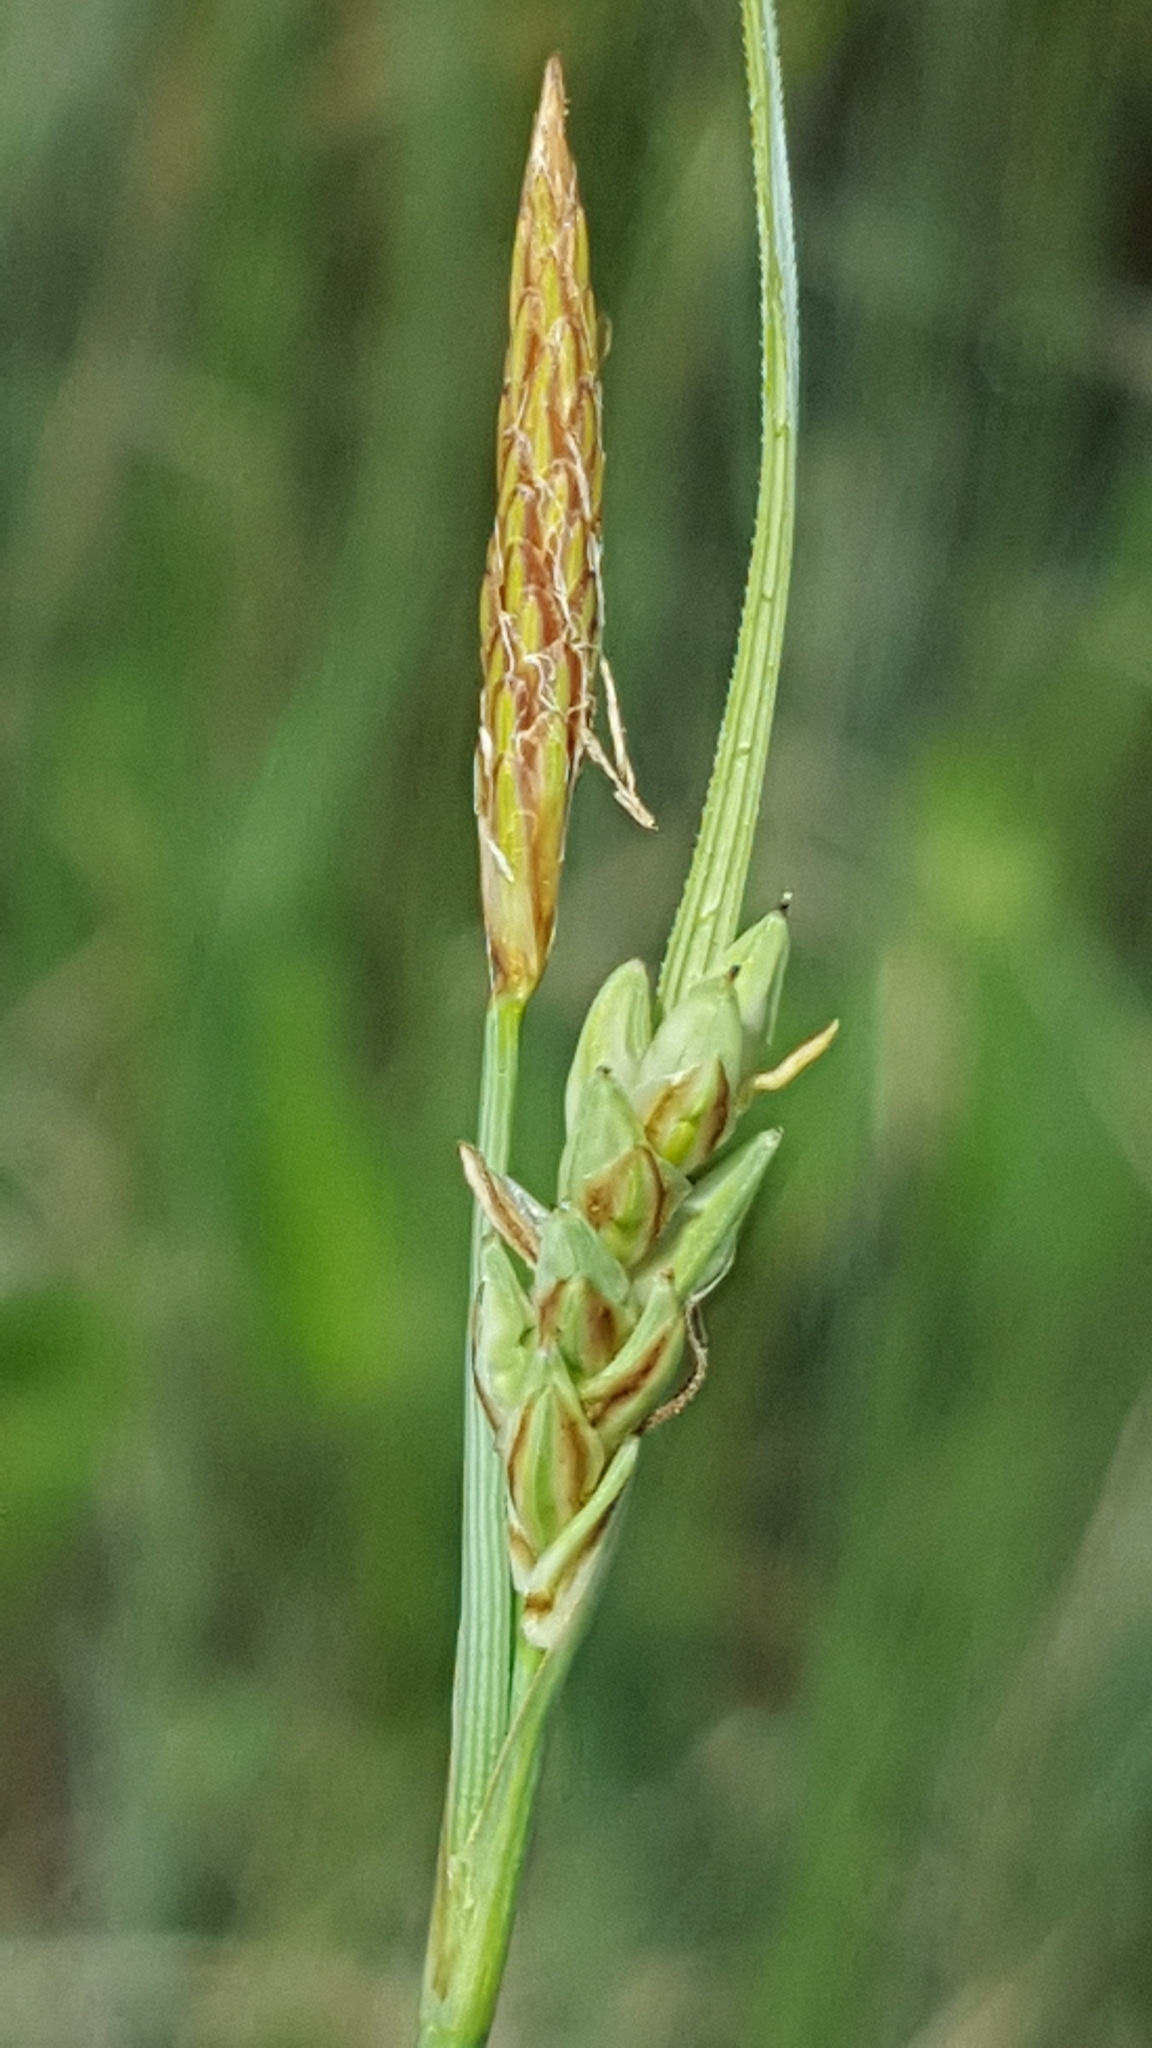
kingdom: Plantae
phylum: Tracheophyta
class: Liliopsida
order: Poales
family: Cyperaceae
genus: Carex
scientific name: Carex livida
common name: Livid sedge
